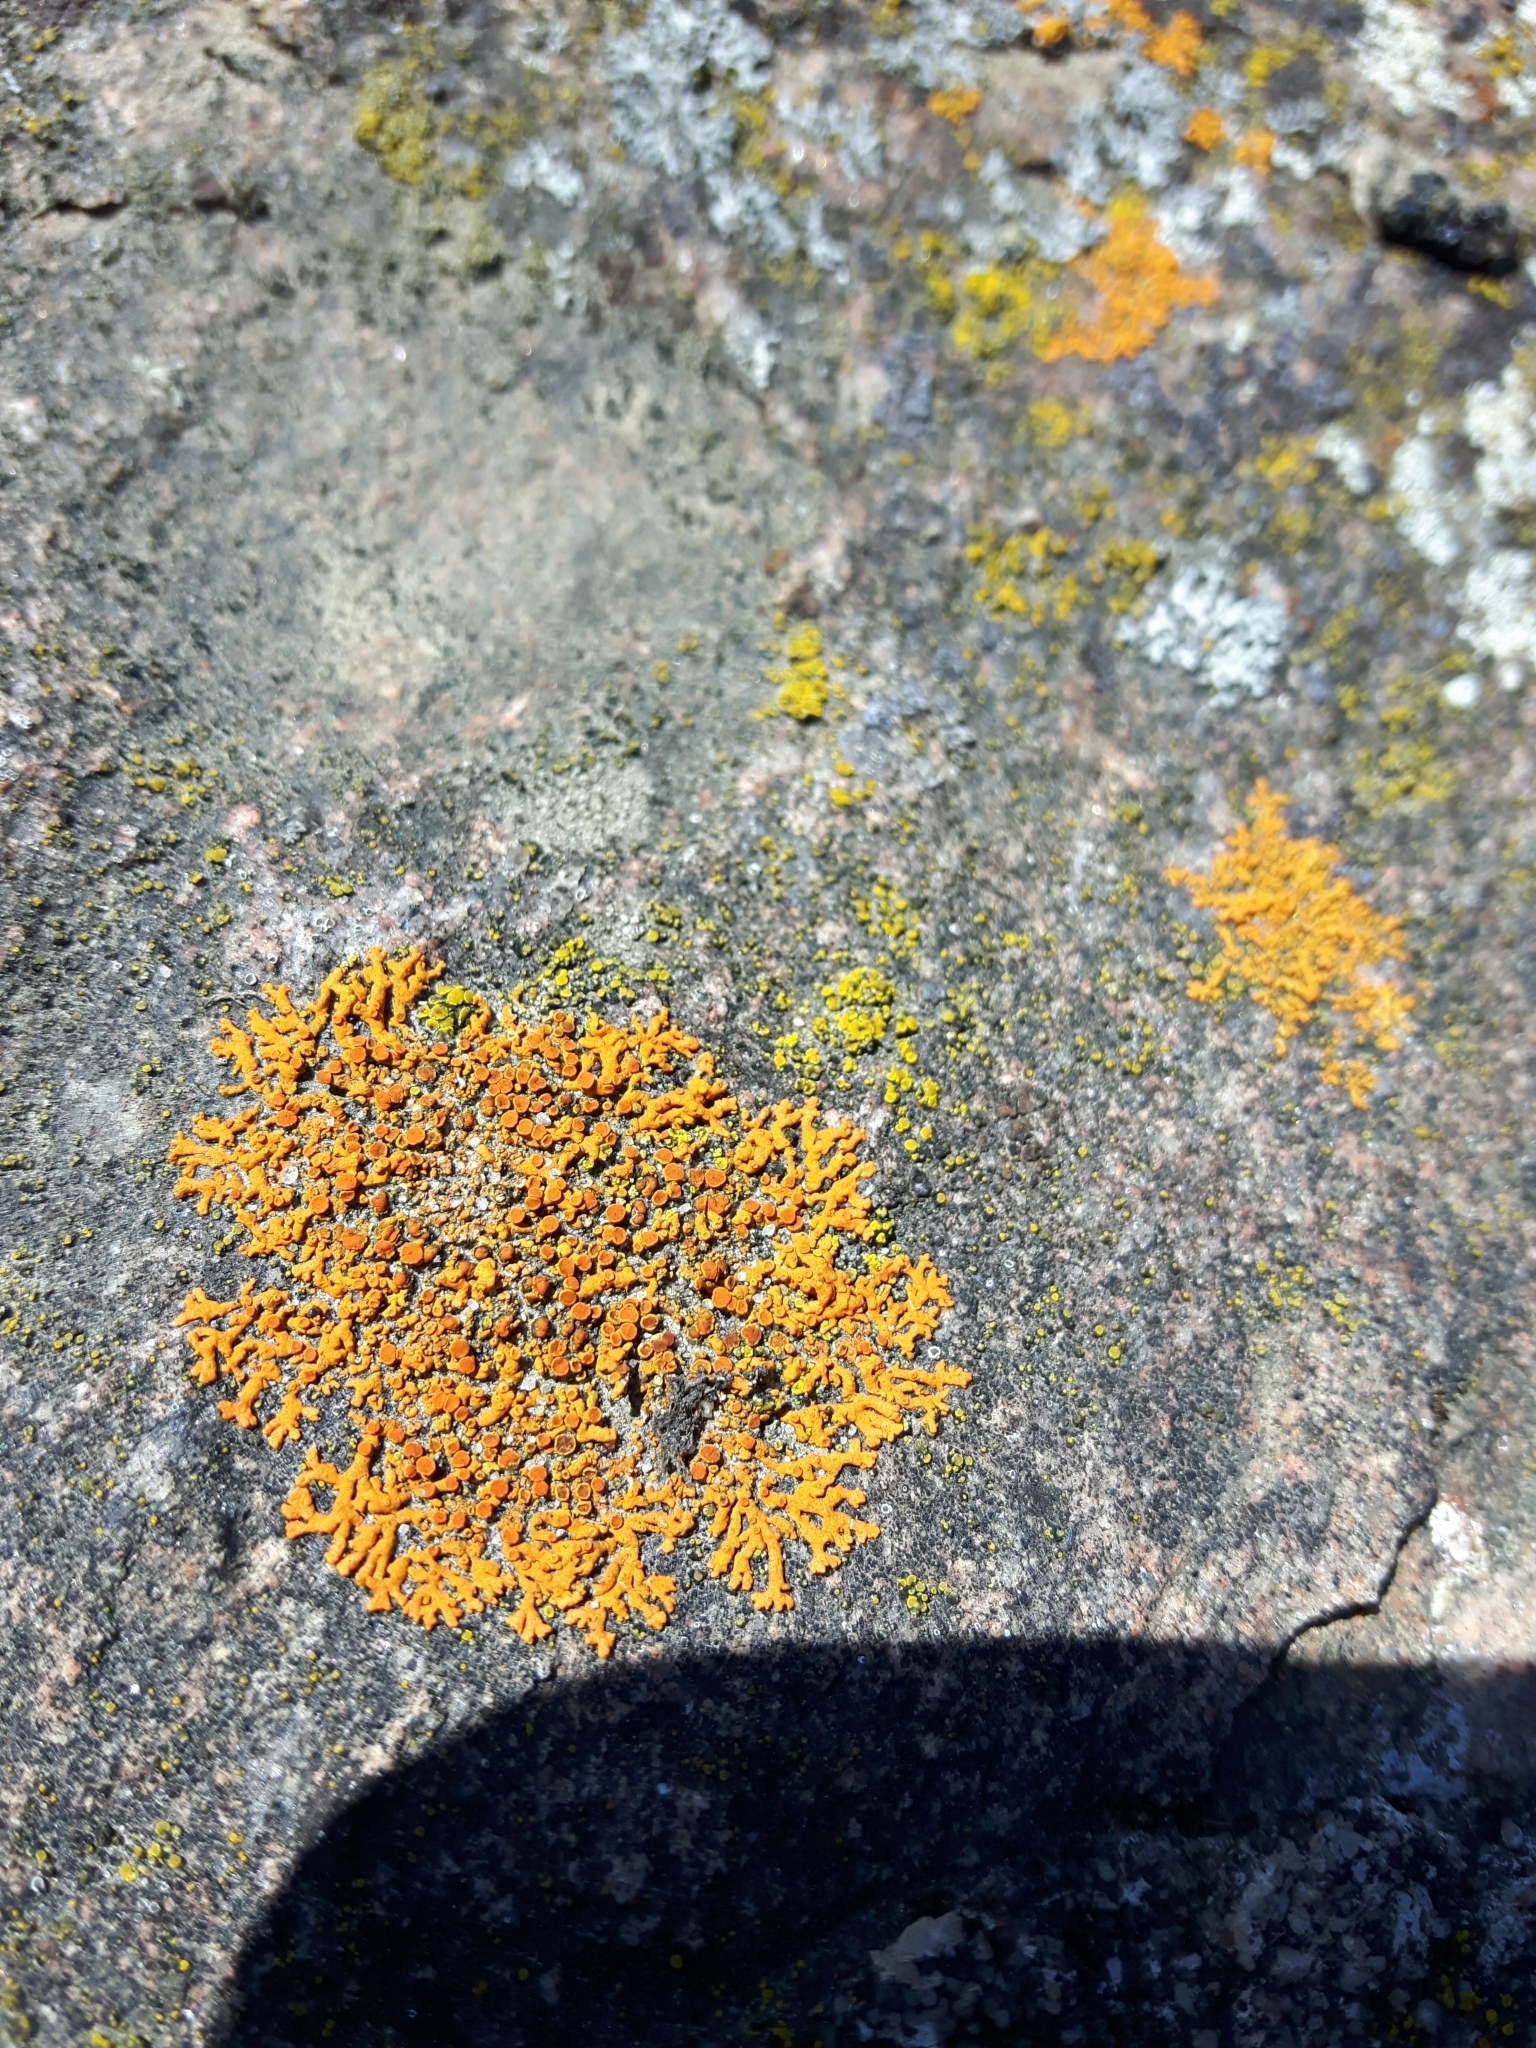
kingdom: Fungi
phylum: Ascomycota
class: Lecanoromycetes
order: Teloschistales
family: Teloschistaceae
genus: Xanthoria
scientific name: Xanthoria elegans
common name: Elegant sunburst lichen
